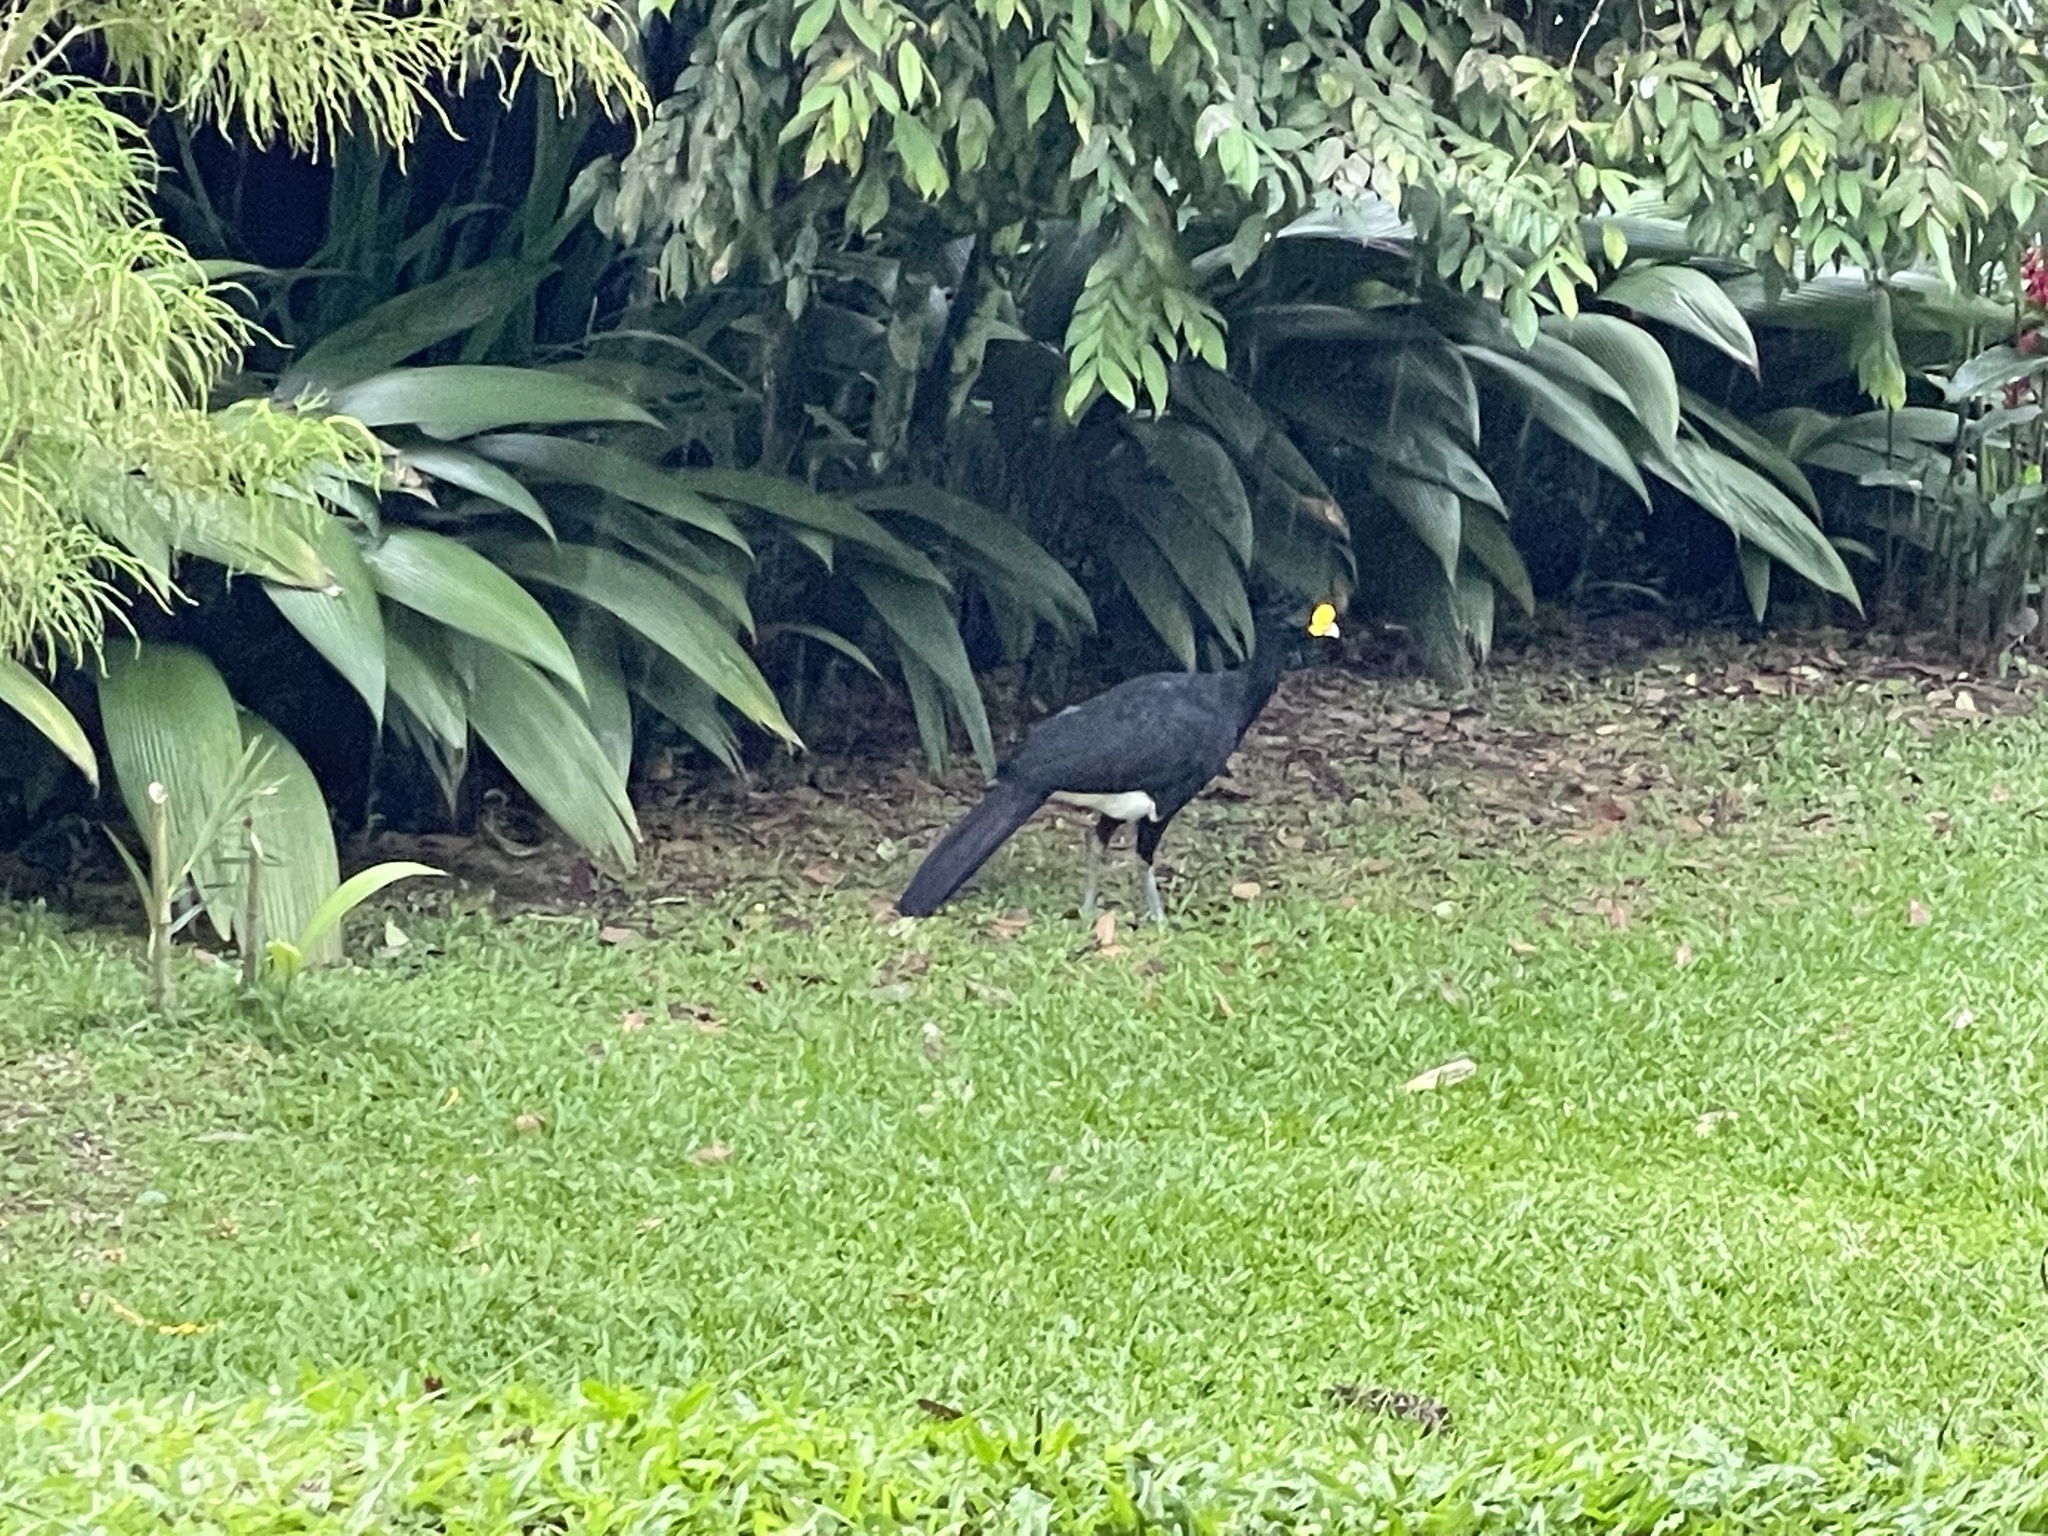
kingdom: Animalia
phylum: Chordata
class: Aves
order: Galliformes
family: Cracidae
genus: Crax
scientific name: Crax rubra
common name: Great curassow
